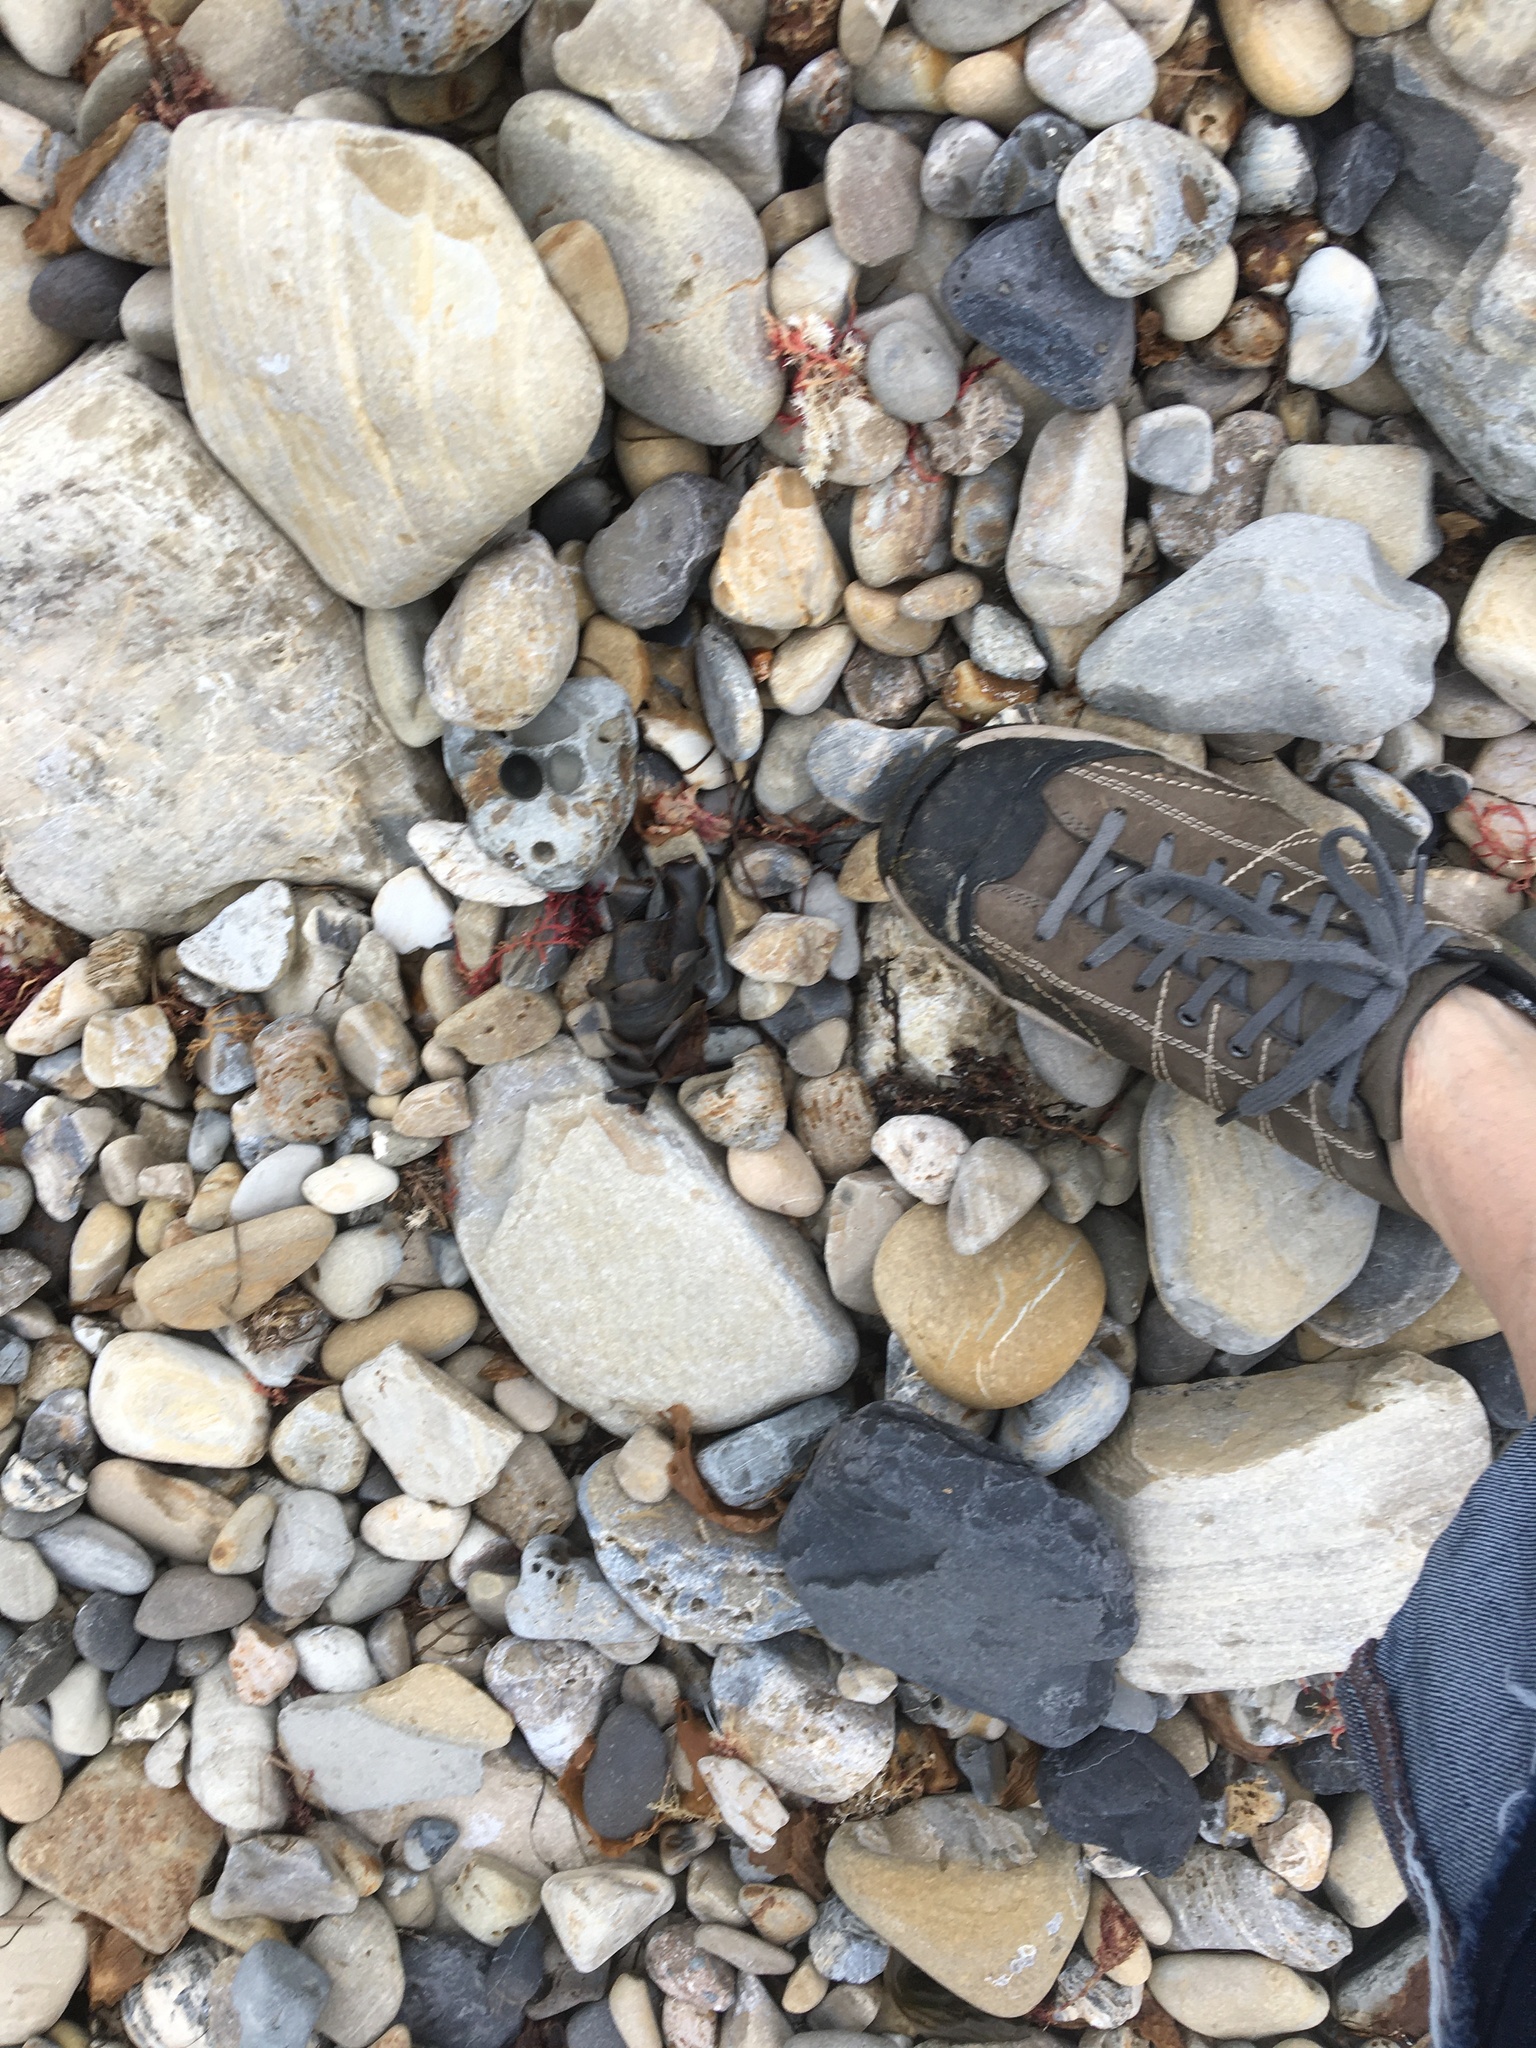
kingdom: Animalia
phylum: Chordata
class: Elasmobranchii
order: Heterodontiformes
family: Heterodontidae
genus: Heterodontus
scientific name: Heterodontus francisci
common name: Horn shark
